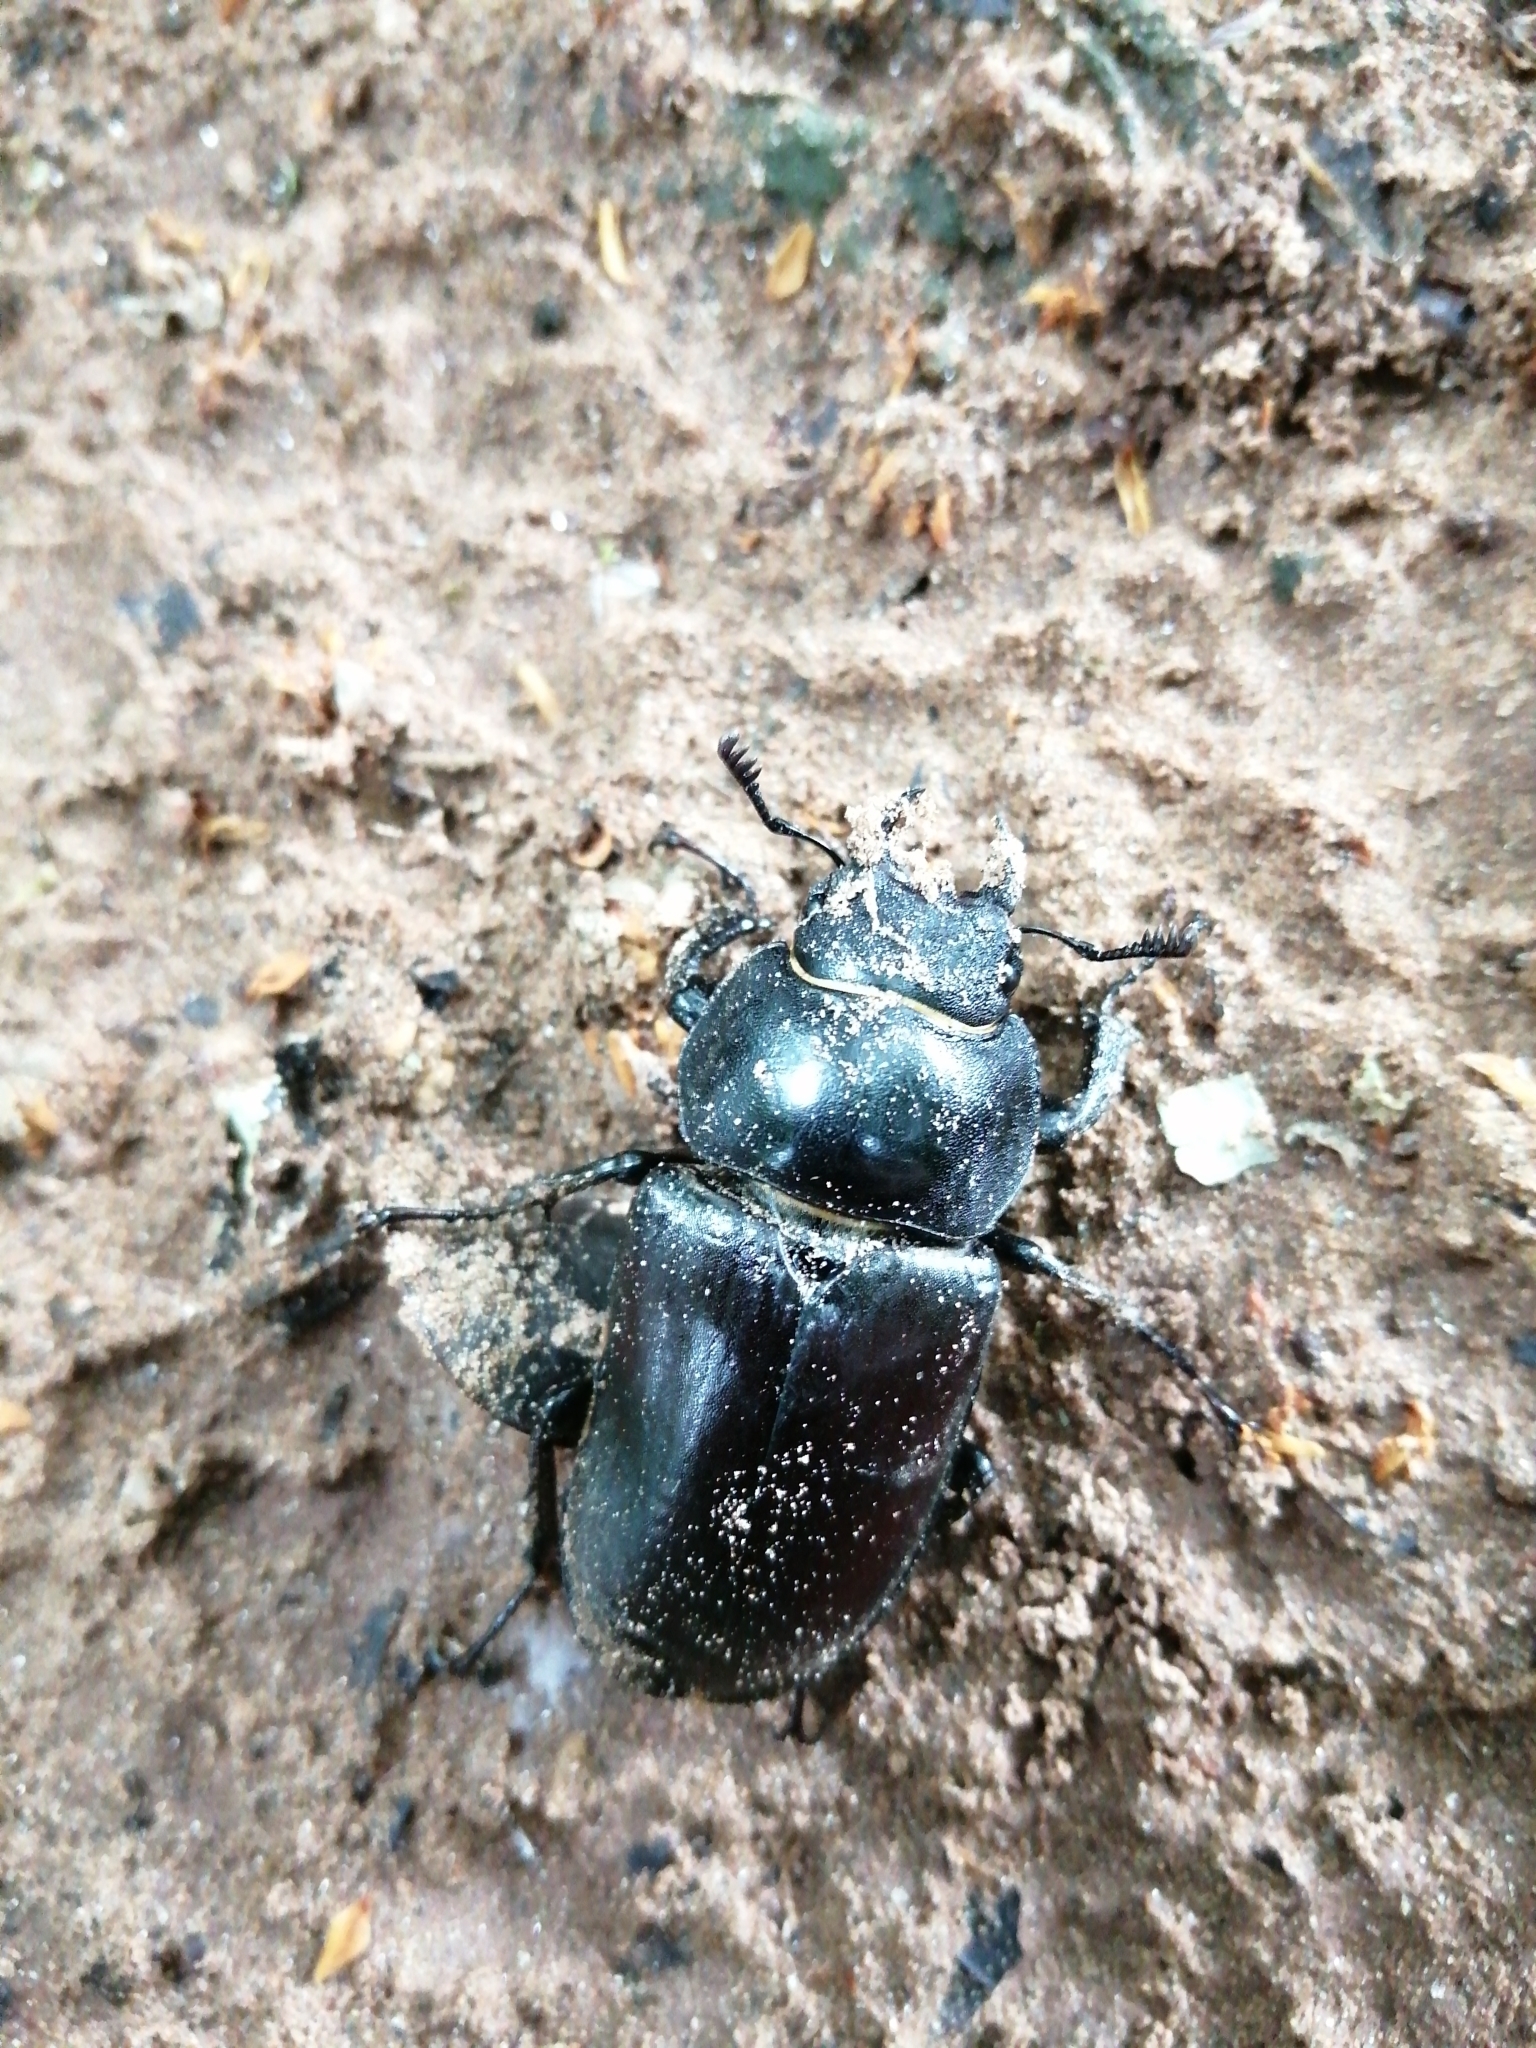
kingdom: Animalia
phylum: Arthropoda
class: Insecta
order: Coleoptera
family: Lucanidae
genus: Lucanus
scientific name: Lucanus cervus
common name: Stag beetle
